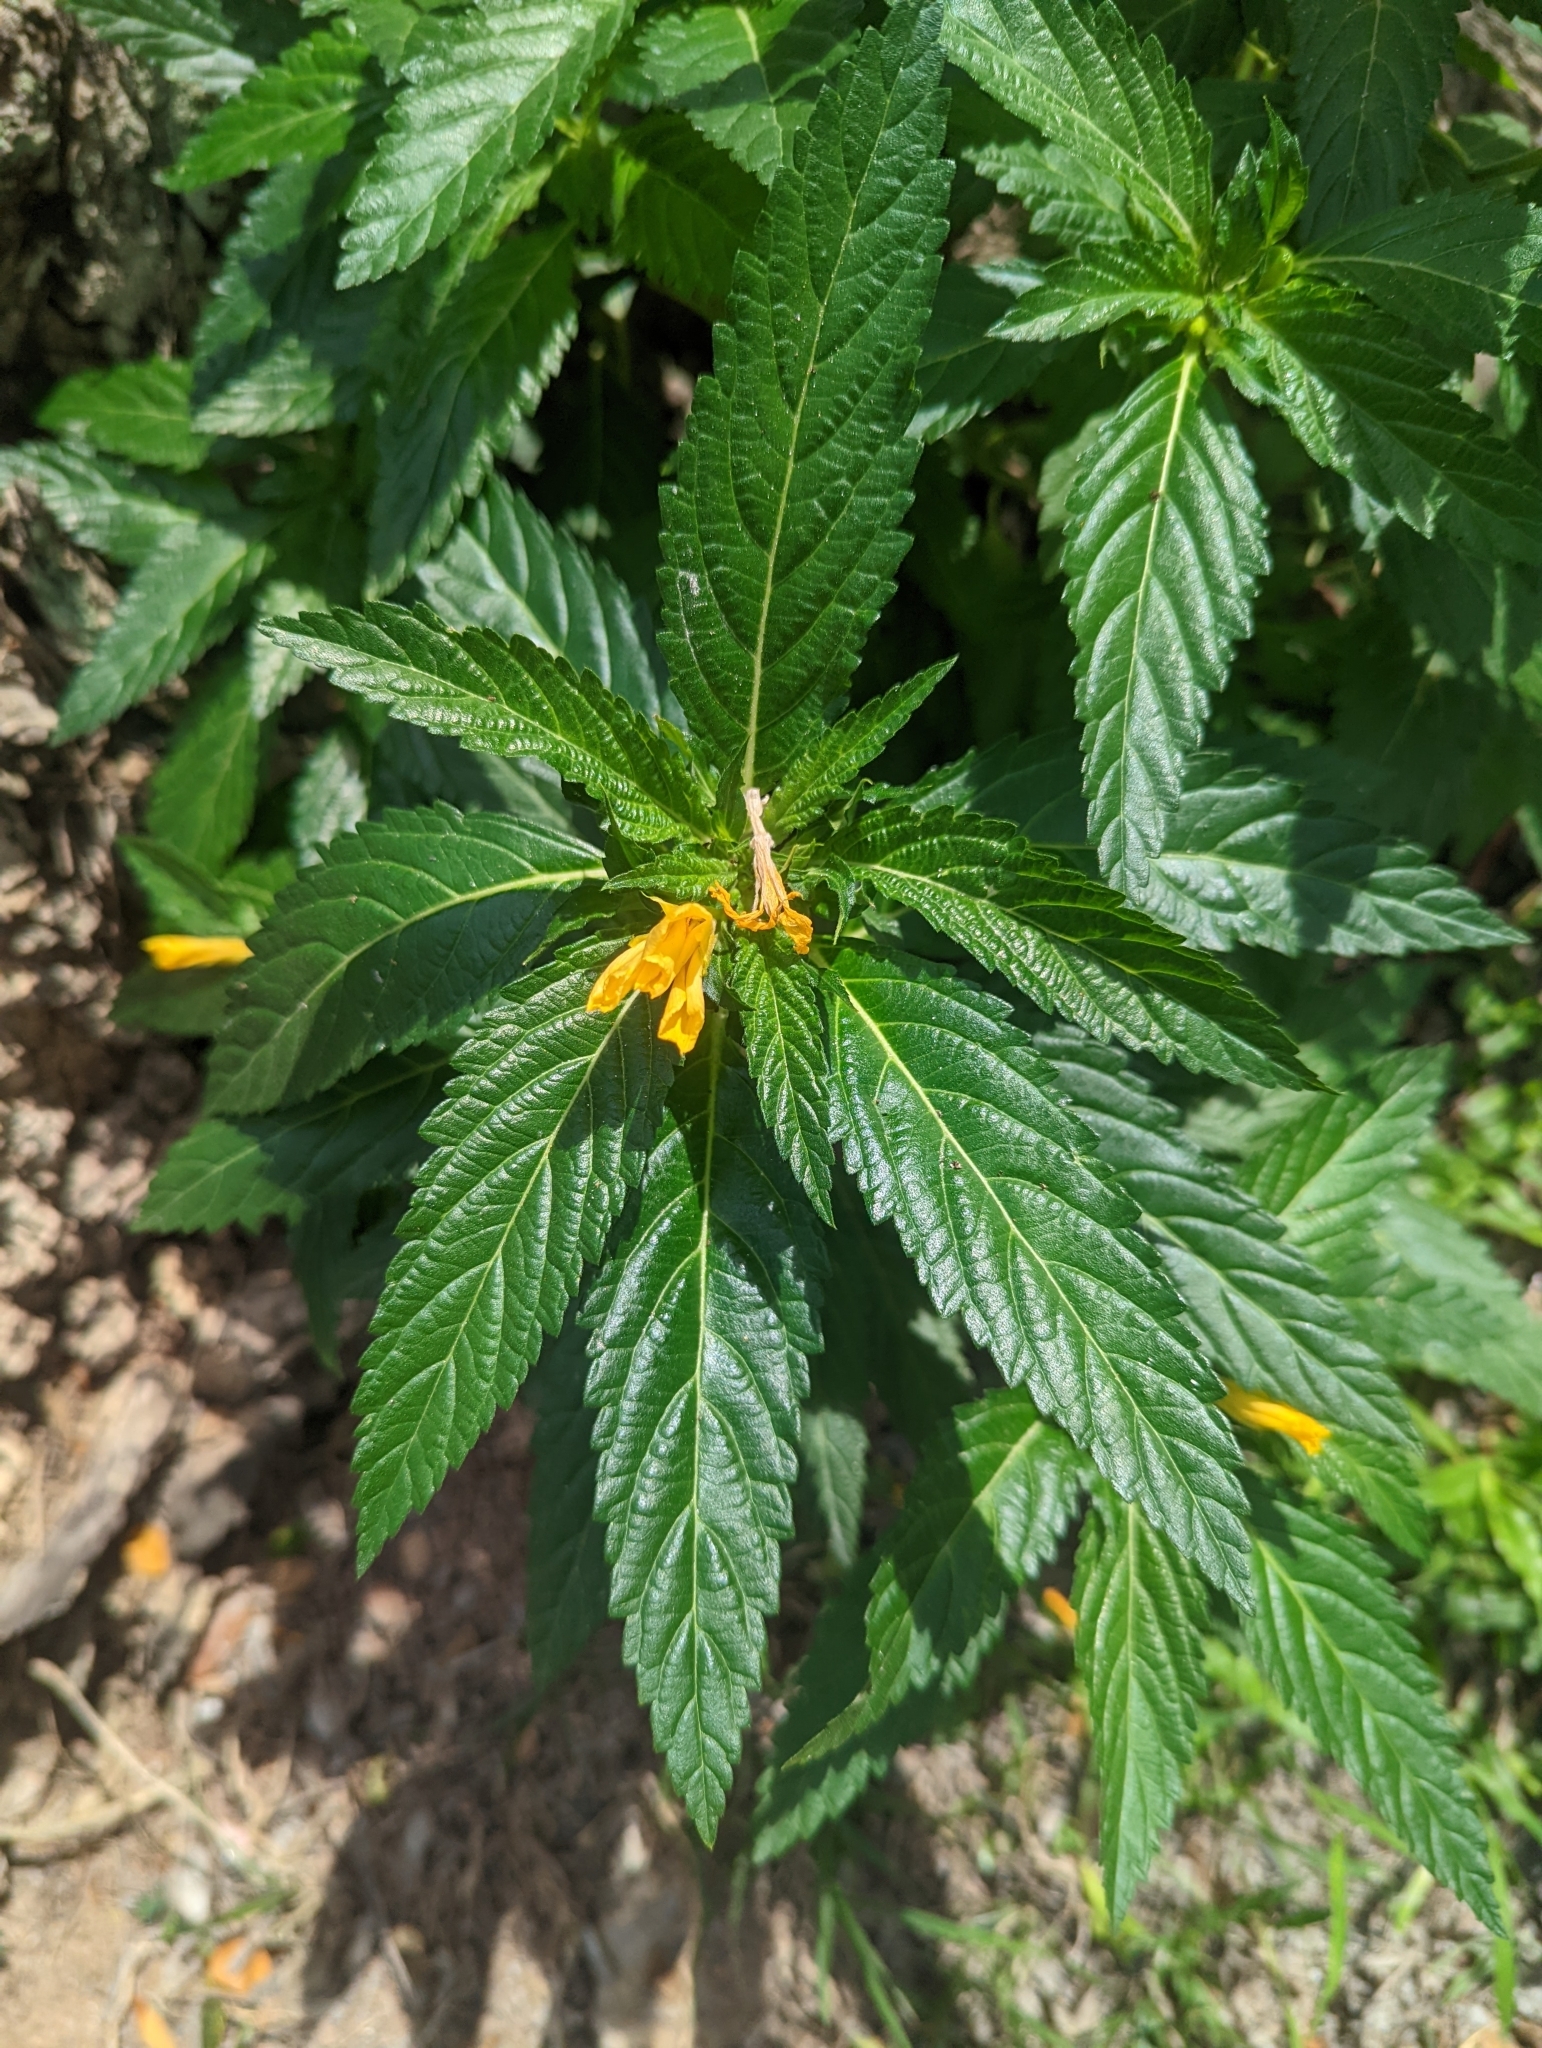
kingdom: Plantae
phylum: Tracheophyta
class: Magnoliopsida
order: Malpighiales
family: Turneraceae
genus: Turnera
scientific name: Turnera ulmifolia
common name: Ramgoat dashalong
